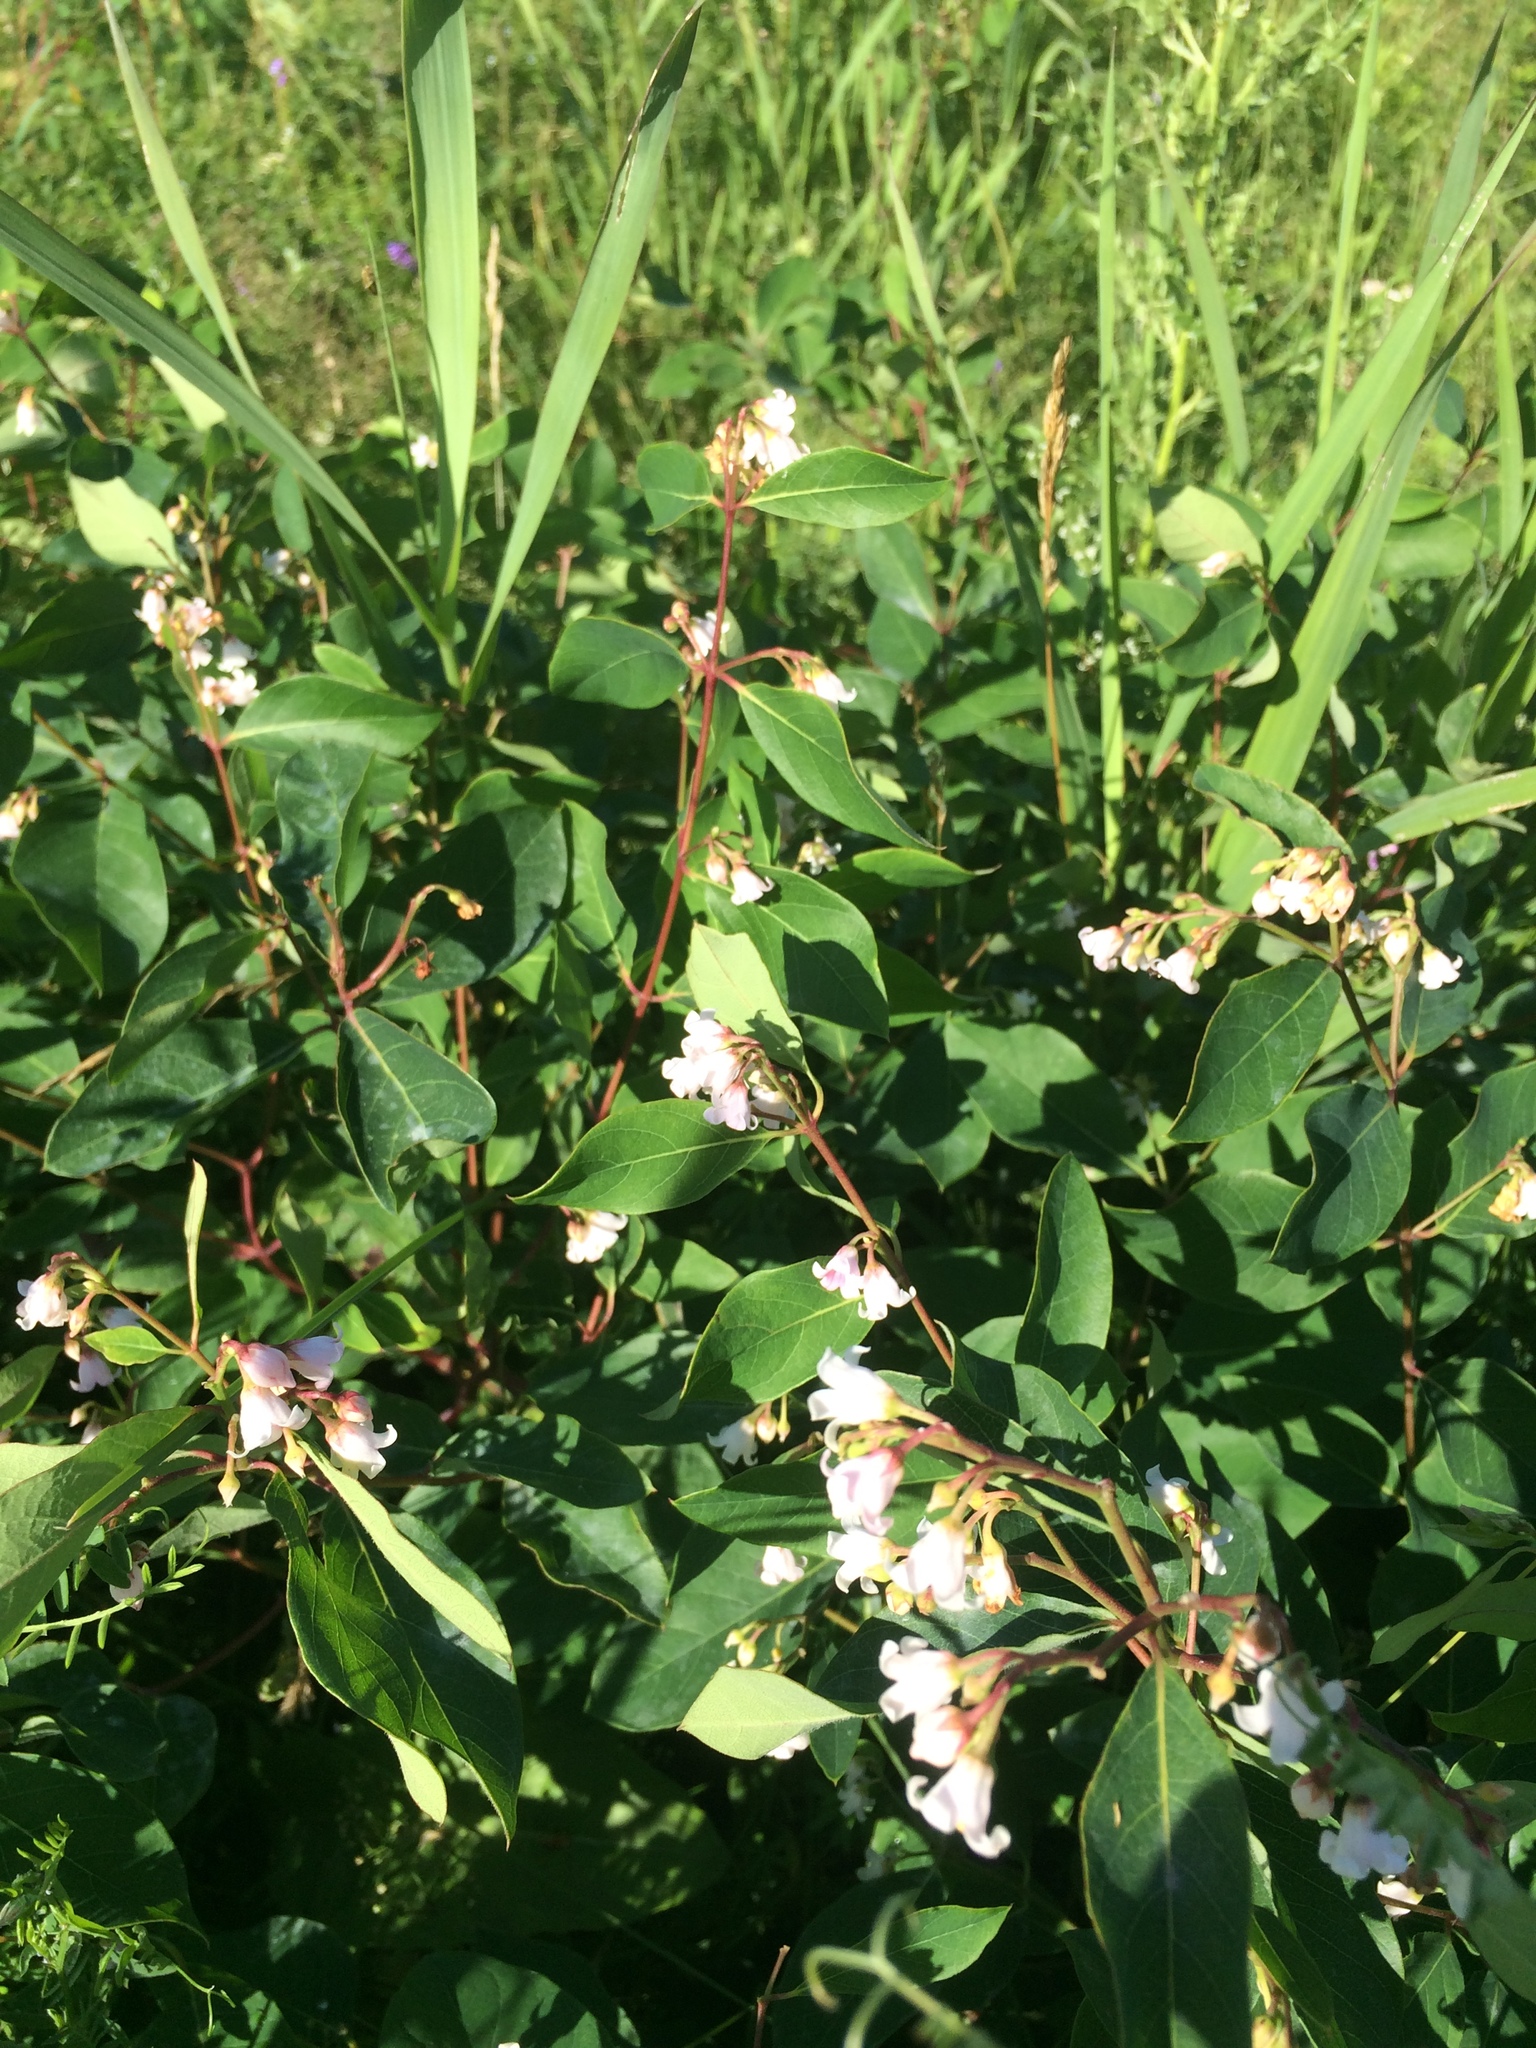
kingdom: Plantae
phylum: Tracheophyta
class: Magnoliopsida
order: Gentianales
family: Apocynaceae
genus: Apocynum
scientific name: Apocynum androsaemifolium
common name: Spreading dogbane
